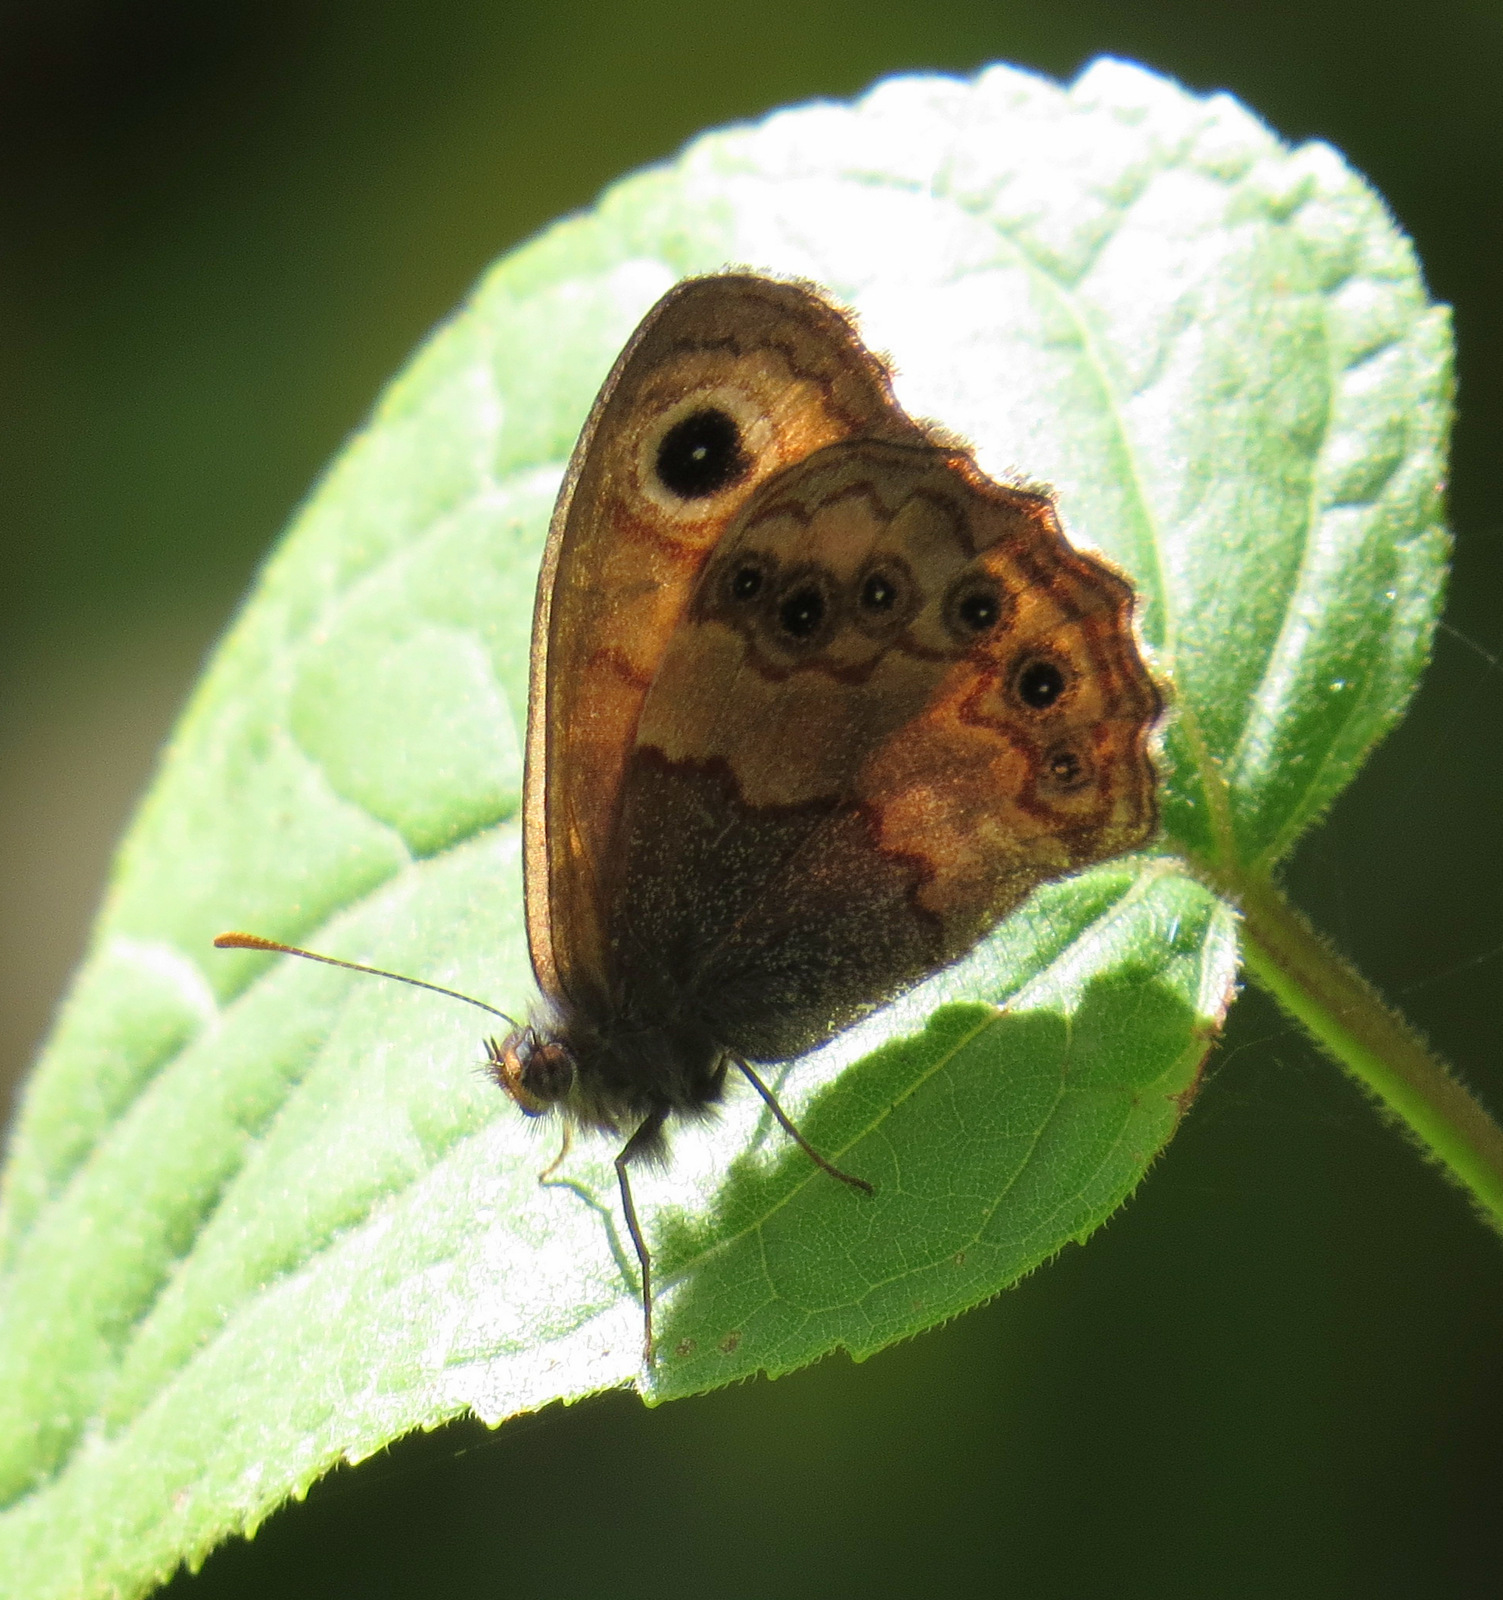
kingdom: Animalia
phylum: Arthropoda
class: Insecta
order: Lepidoptera
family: Nymphalidae
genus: Paramecera
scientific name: Paramecera xicaque
